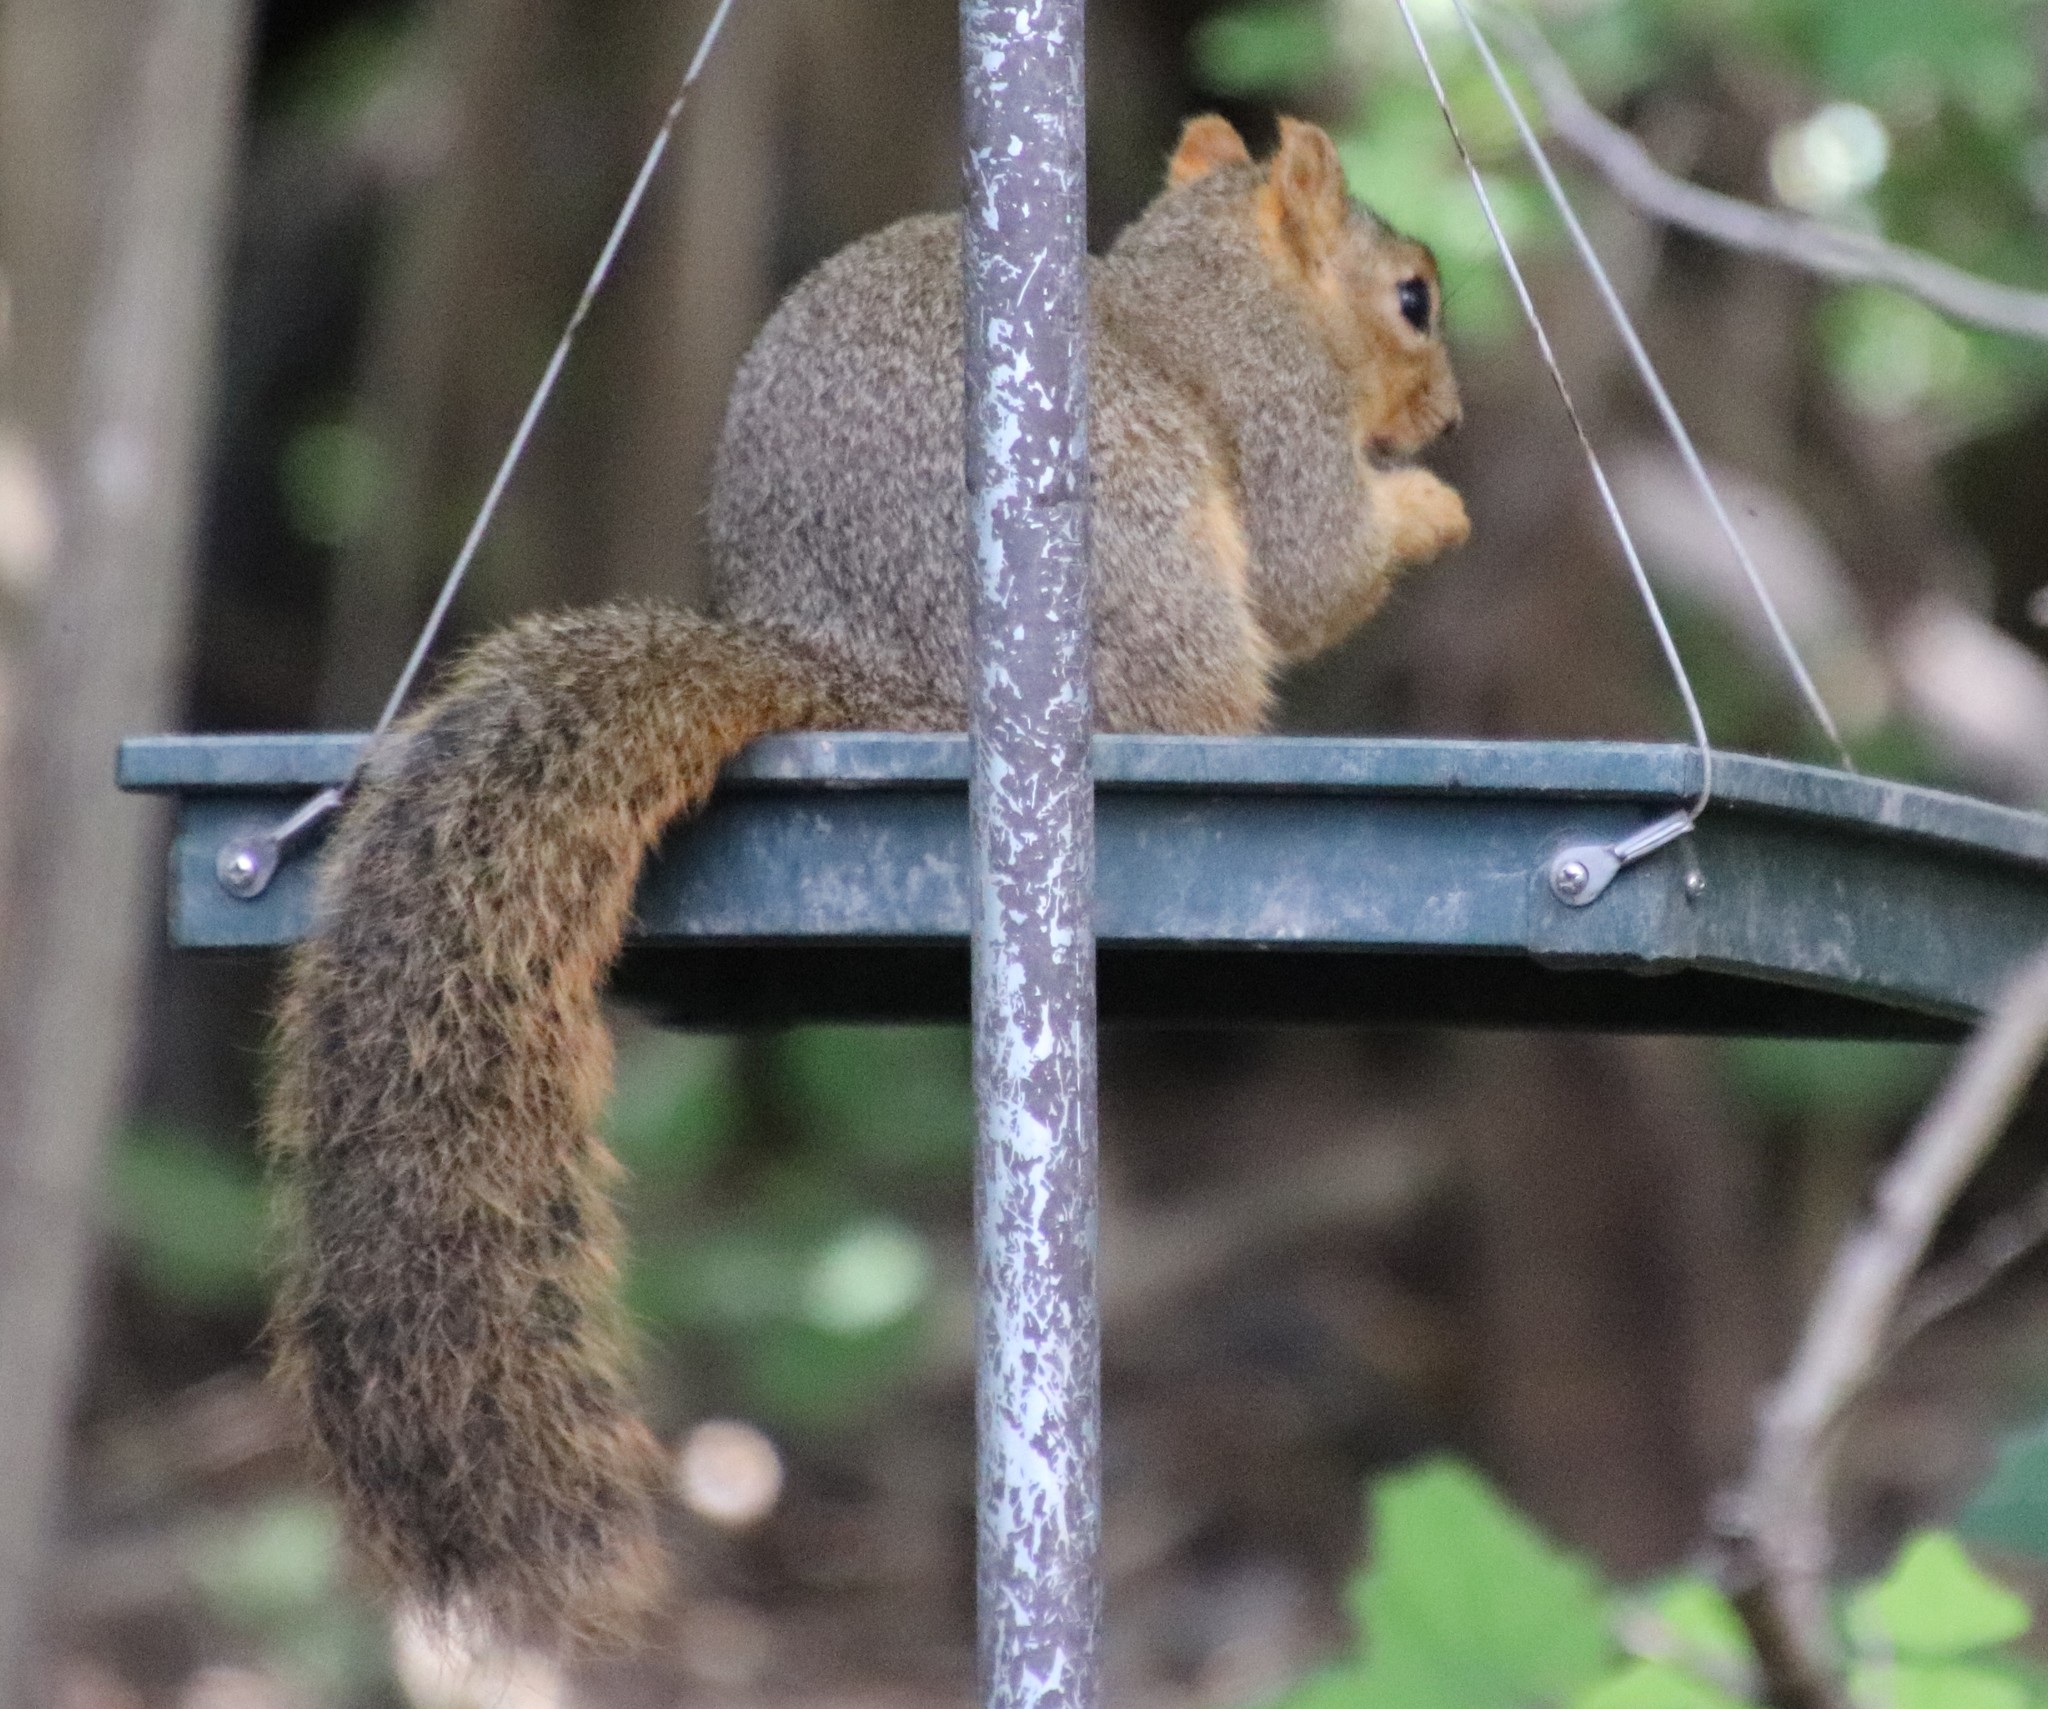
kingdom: Animalia
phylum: Chordata
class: Mammalia
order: Rodentia
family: Sciuridae
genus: Sciurus
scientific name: Sciurus niger
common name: Fox squirrel
